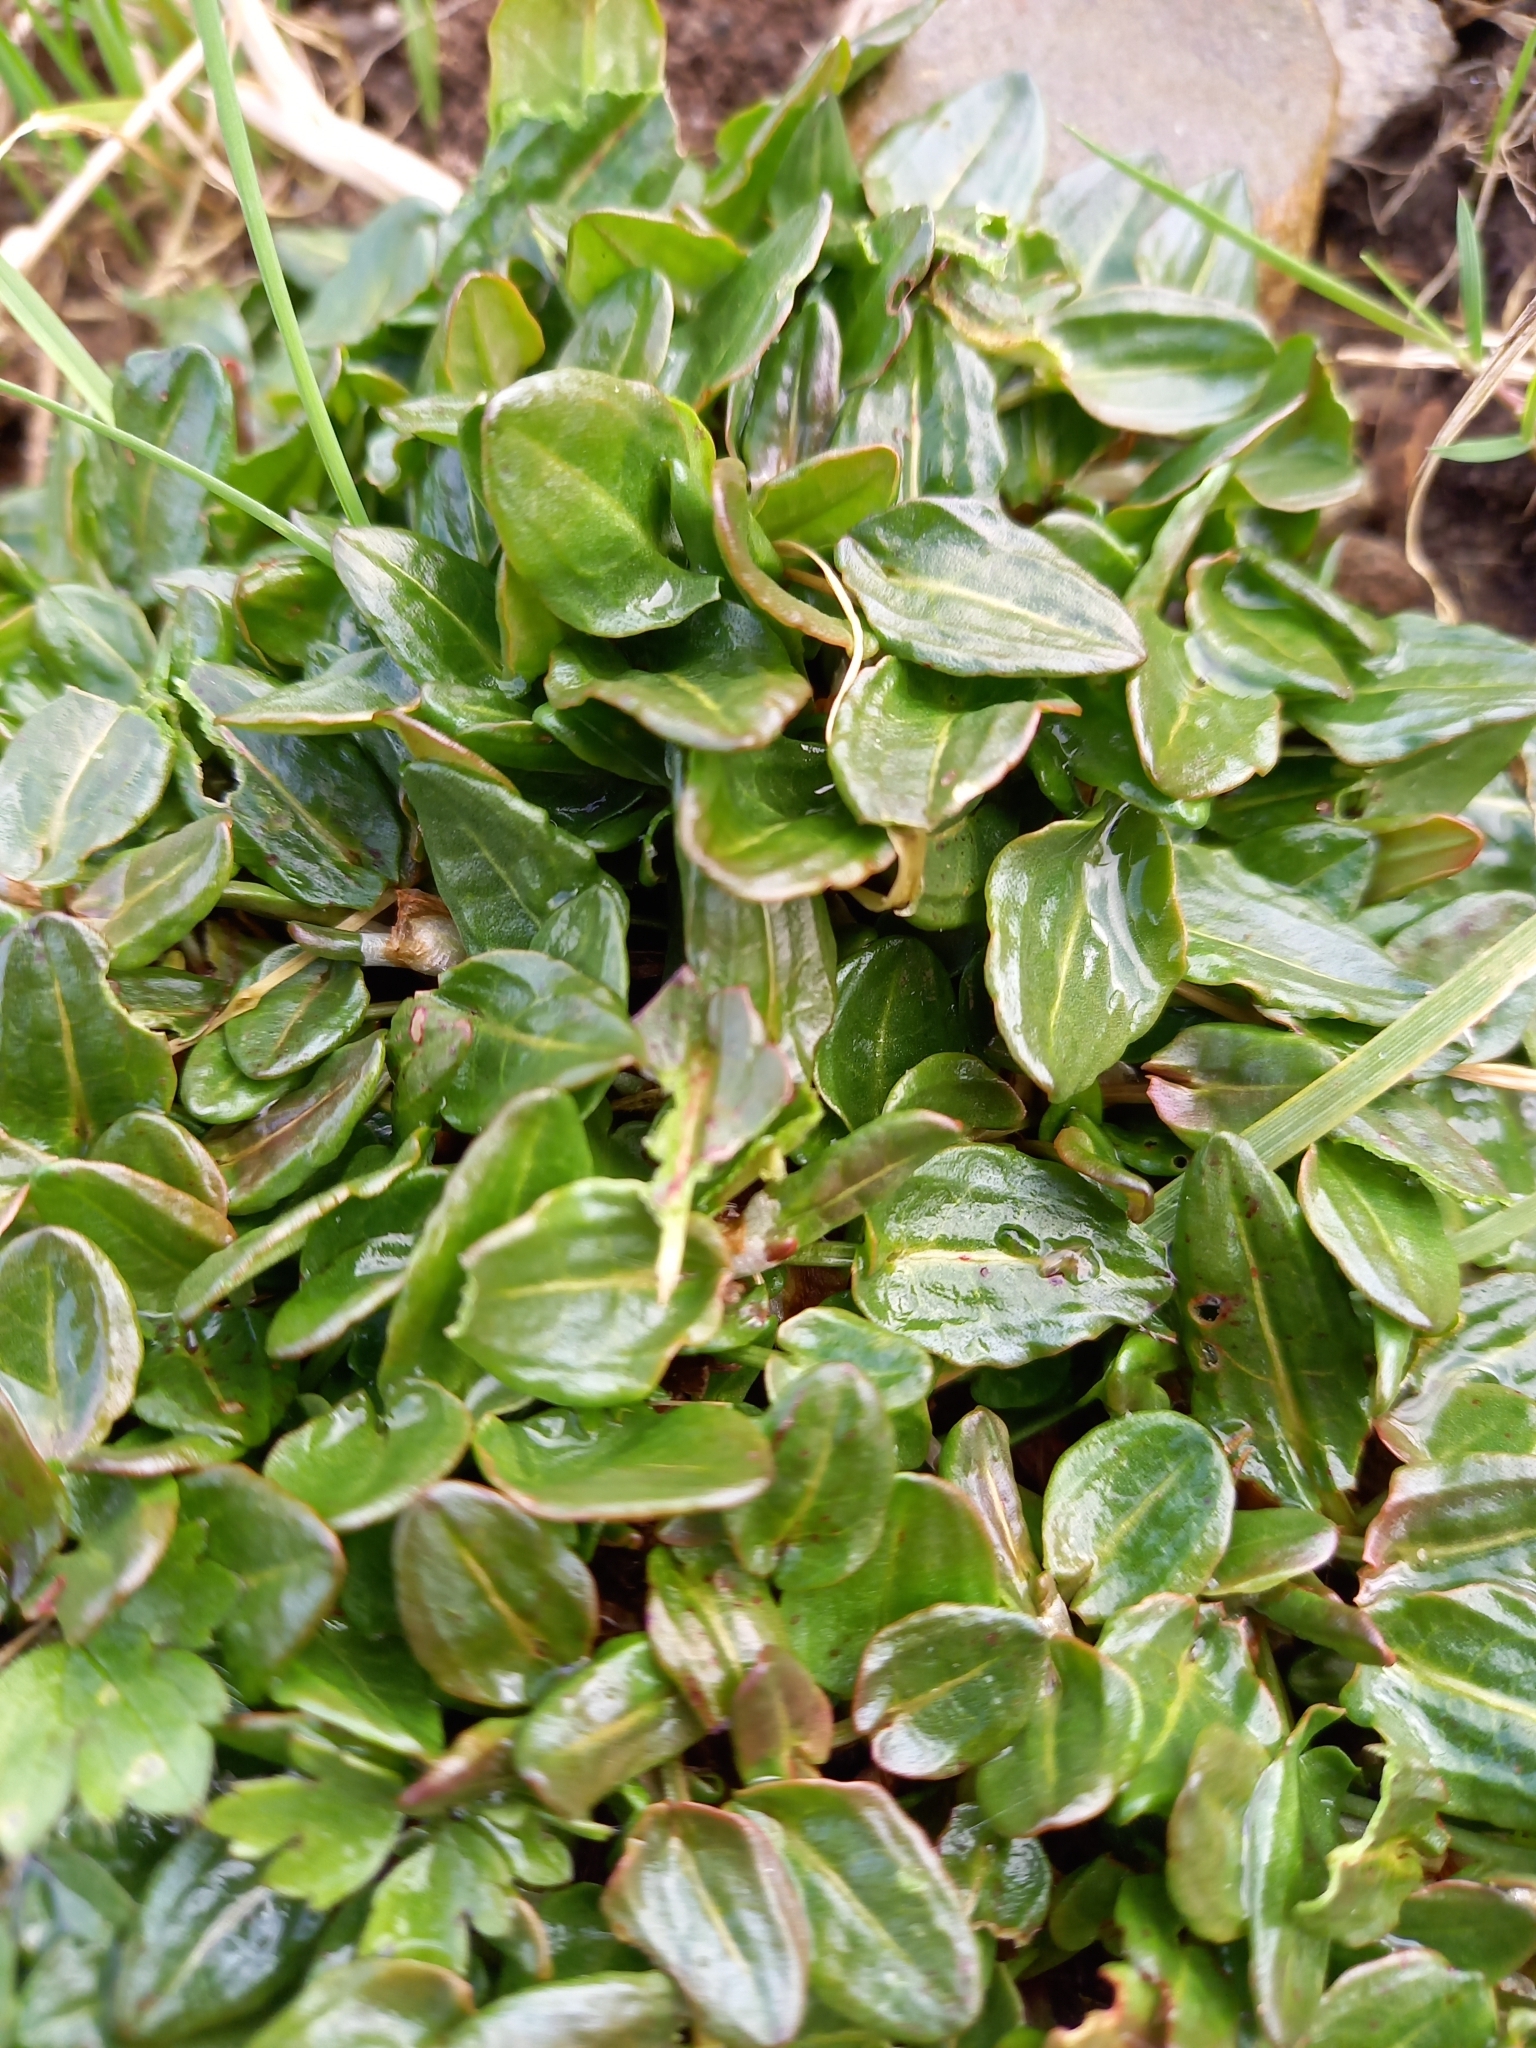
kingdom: Plantae
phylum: Tracheophyta
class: Magnoliopsida
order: Caryophyllales
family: Polygonaceae
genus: Rumex
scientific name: Rumex acetosa
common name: Garden sorrel
